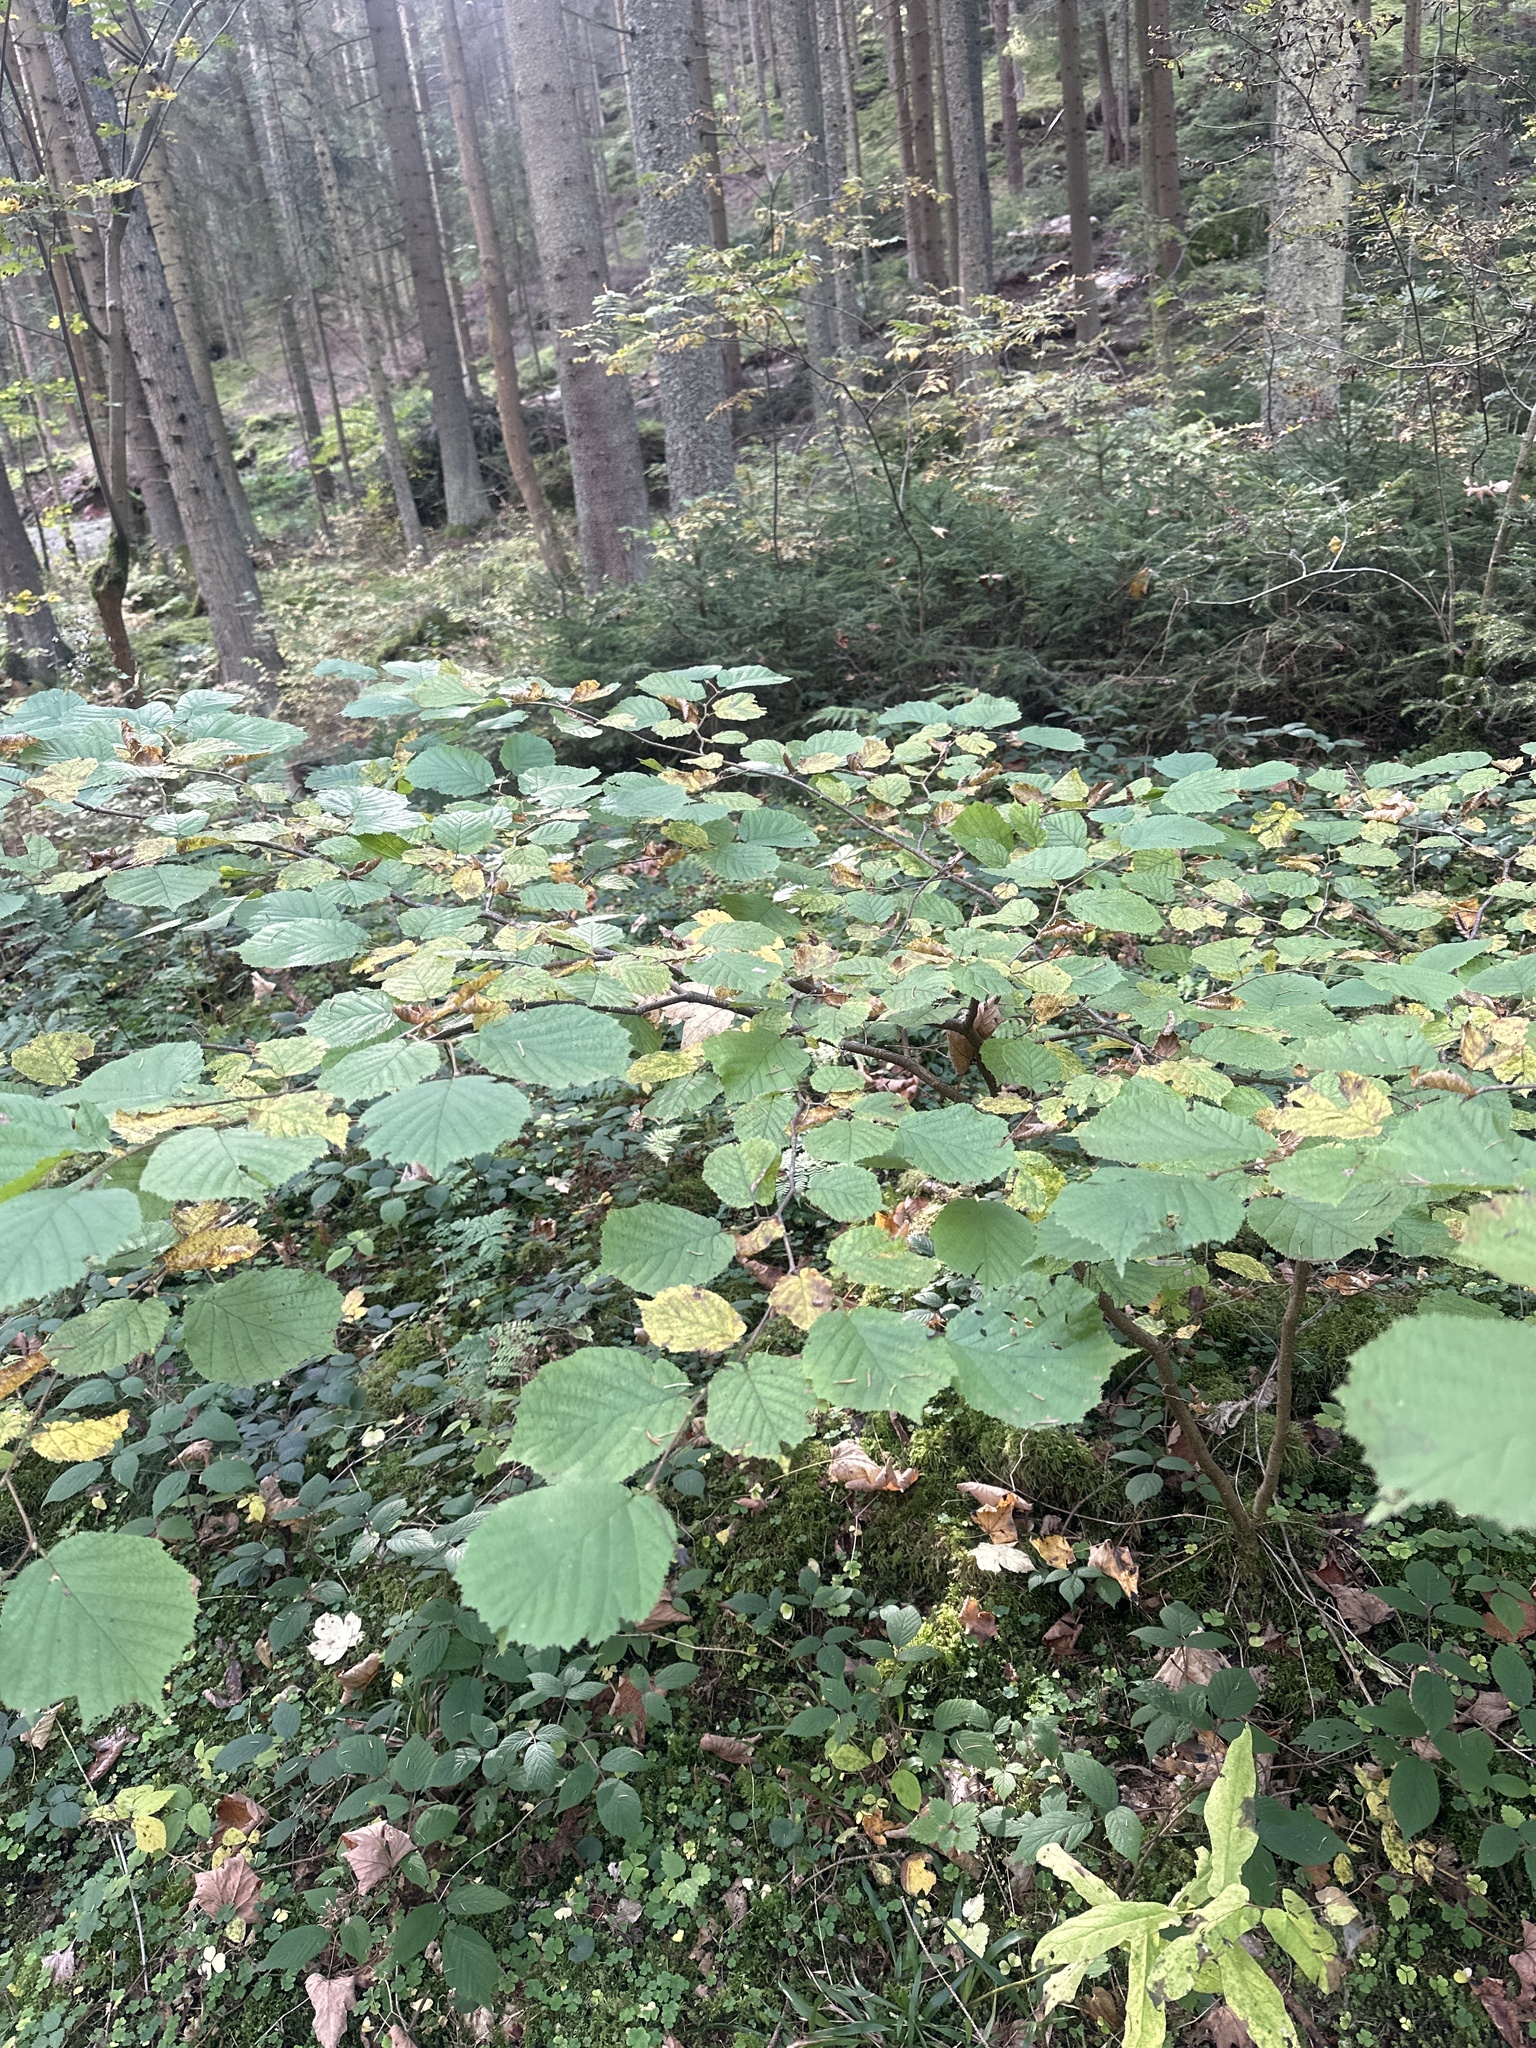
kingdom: Plantae
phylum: Tracheophyta
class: Magnoliopsida
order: Fagales
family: Betulaceae
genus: Corylus
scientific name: Corylus avellana
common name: European hazel
